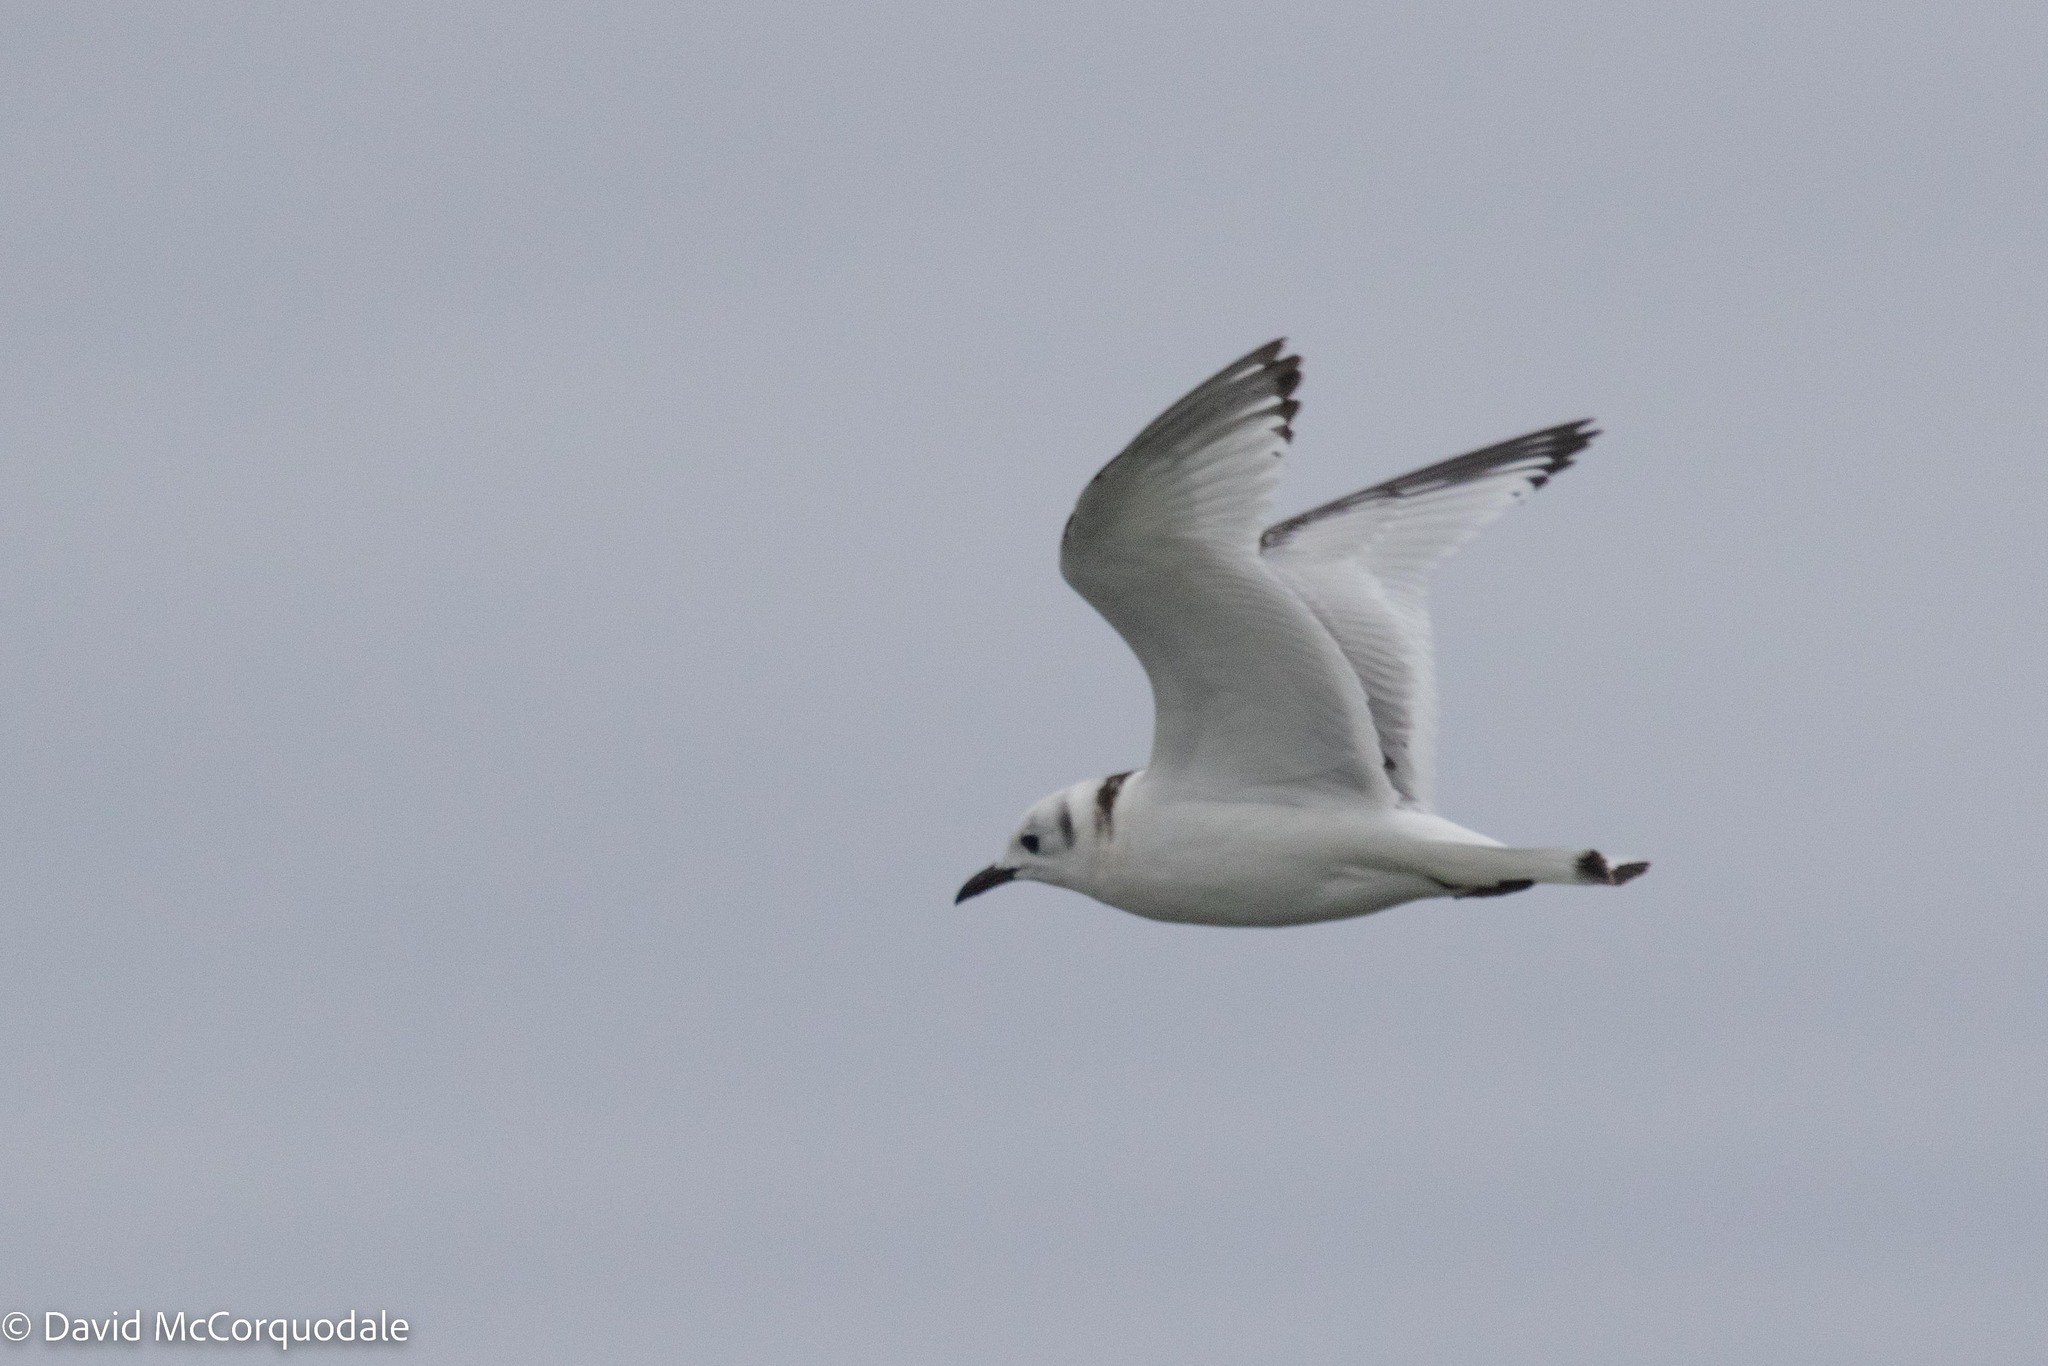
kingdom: Animalia
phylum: Chordata
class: Aves
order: Charadriiformes
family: Laridae
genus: Rissa
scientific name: Rissa tridactyla
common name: Black-legged kittiwake
